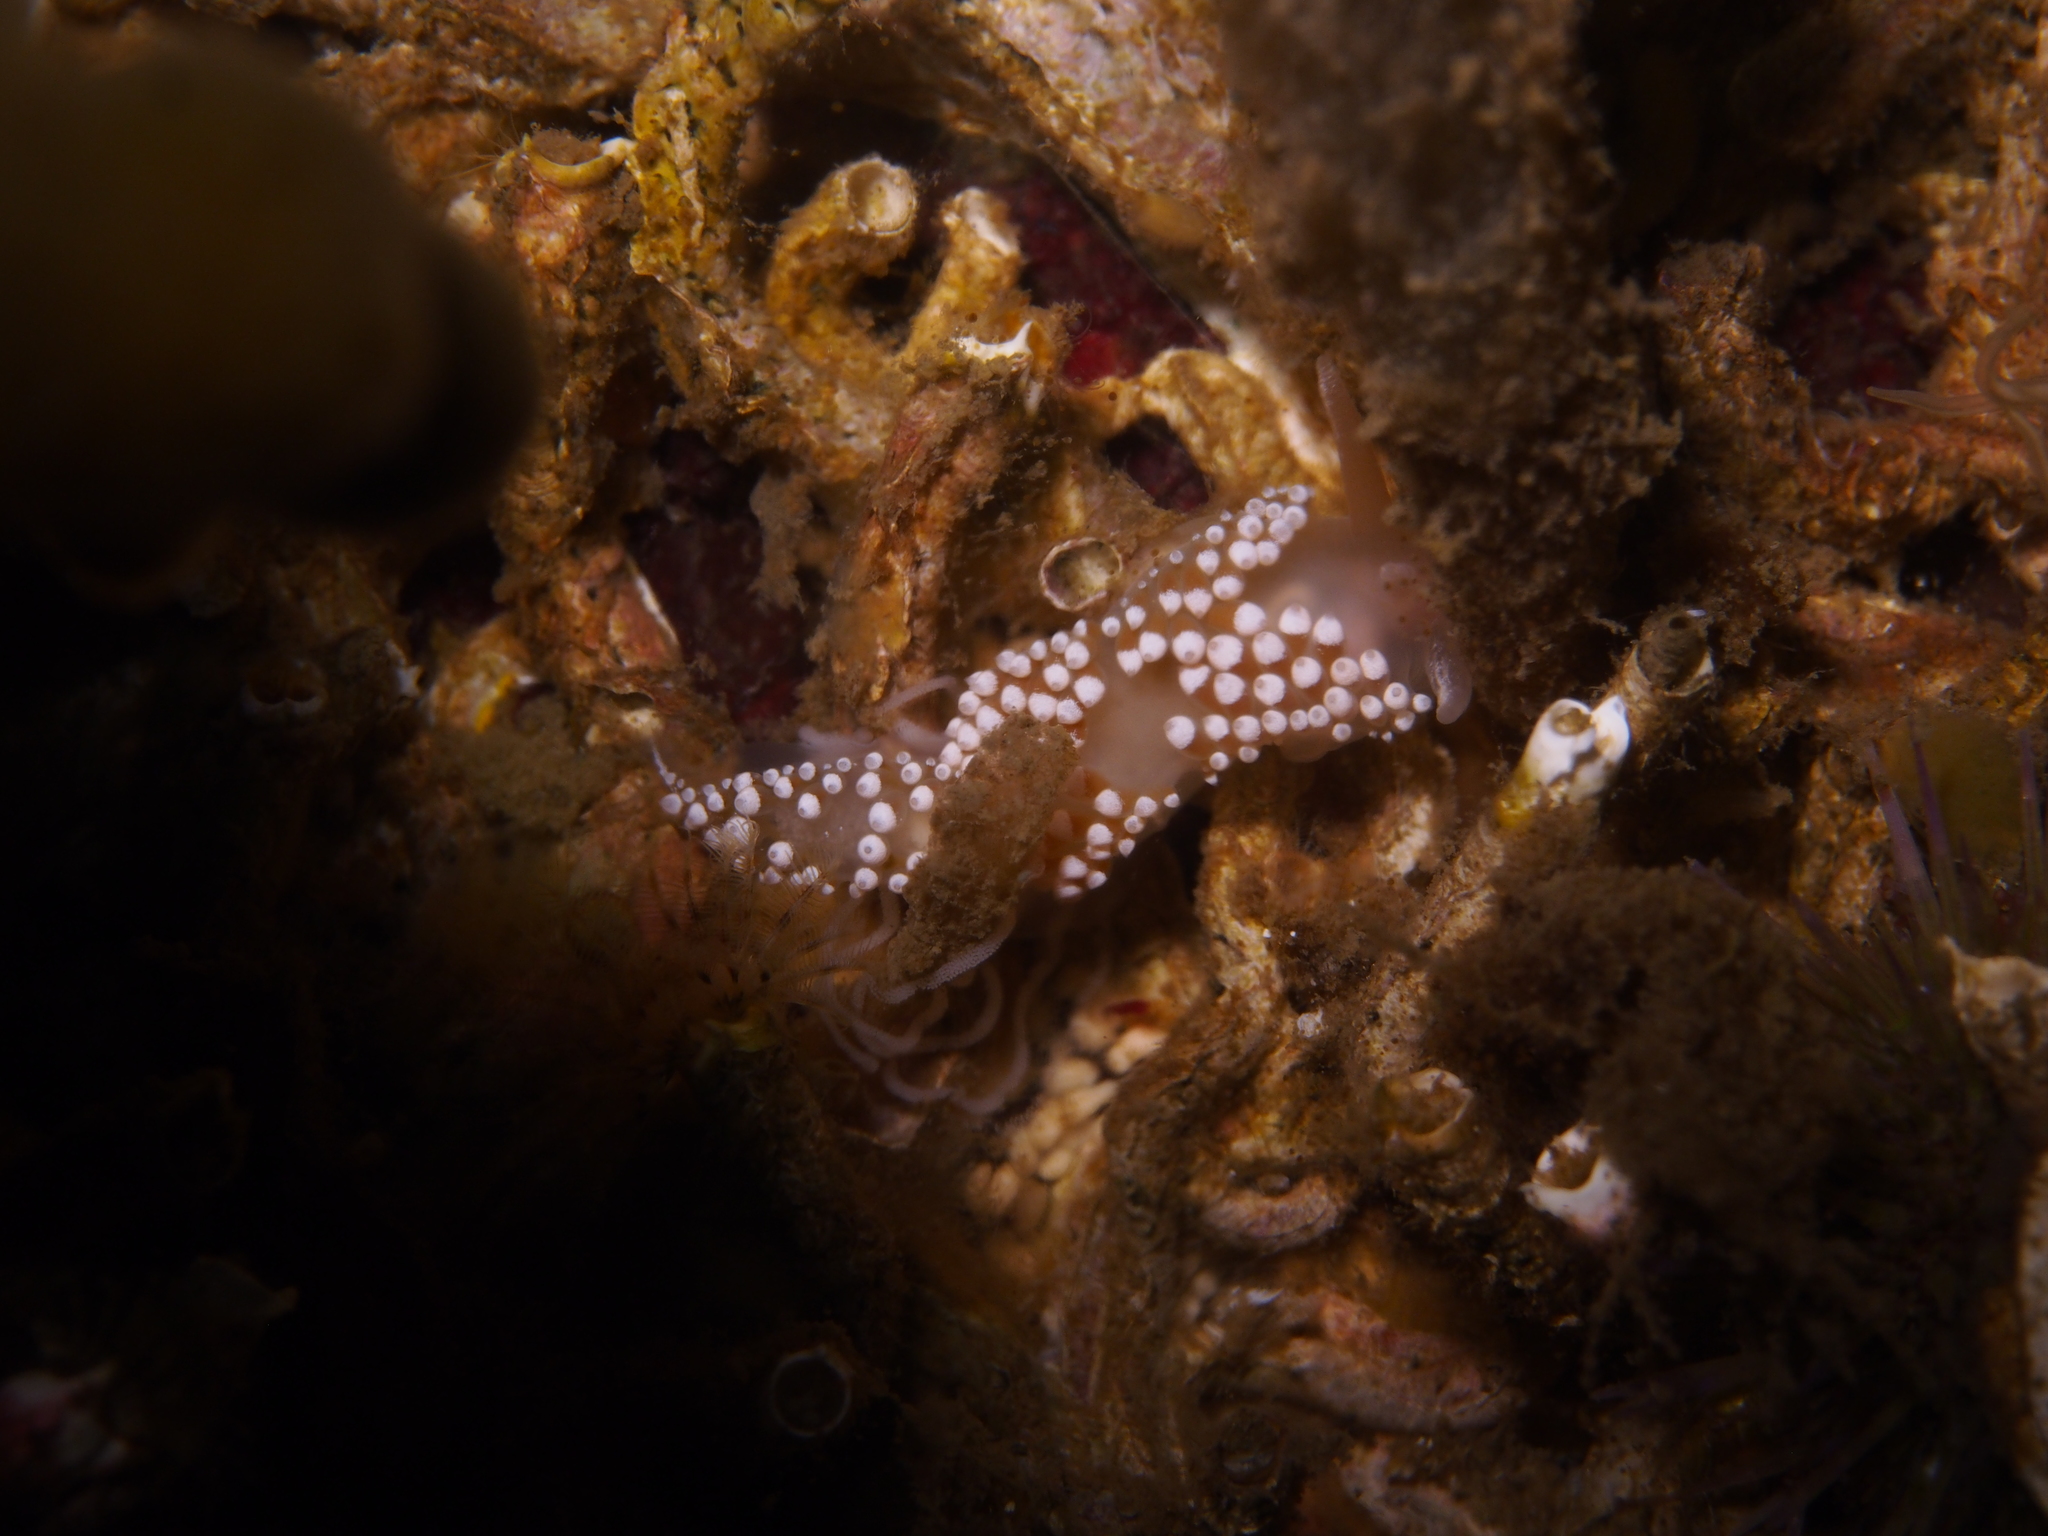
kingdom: Animalia
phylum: Mollusca
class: Gastropoda
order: Nudibranchia
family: Coryphellidae
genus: Coryphella
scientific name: Coryphella verrucosa
